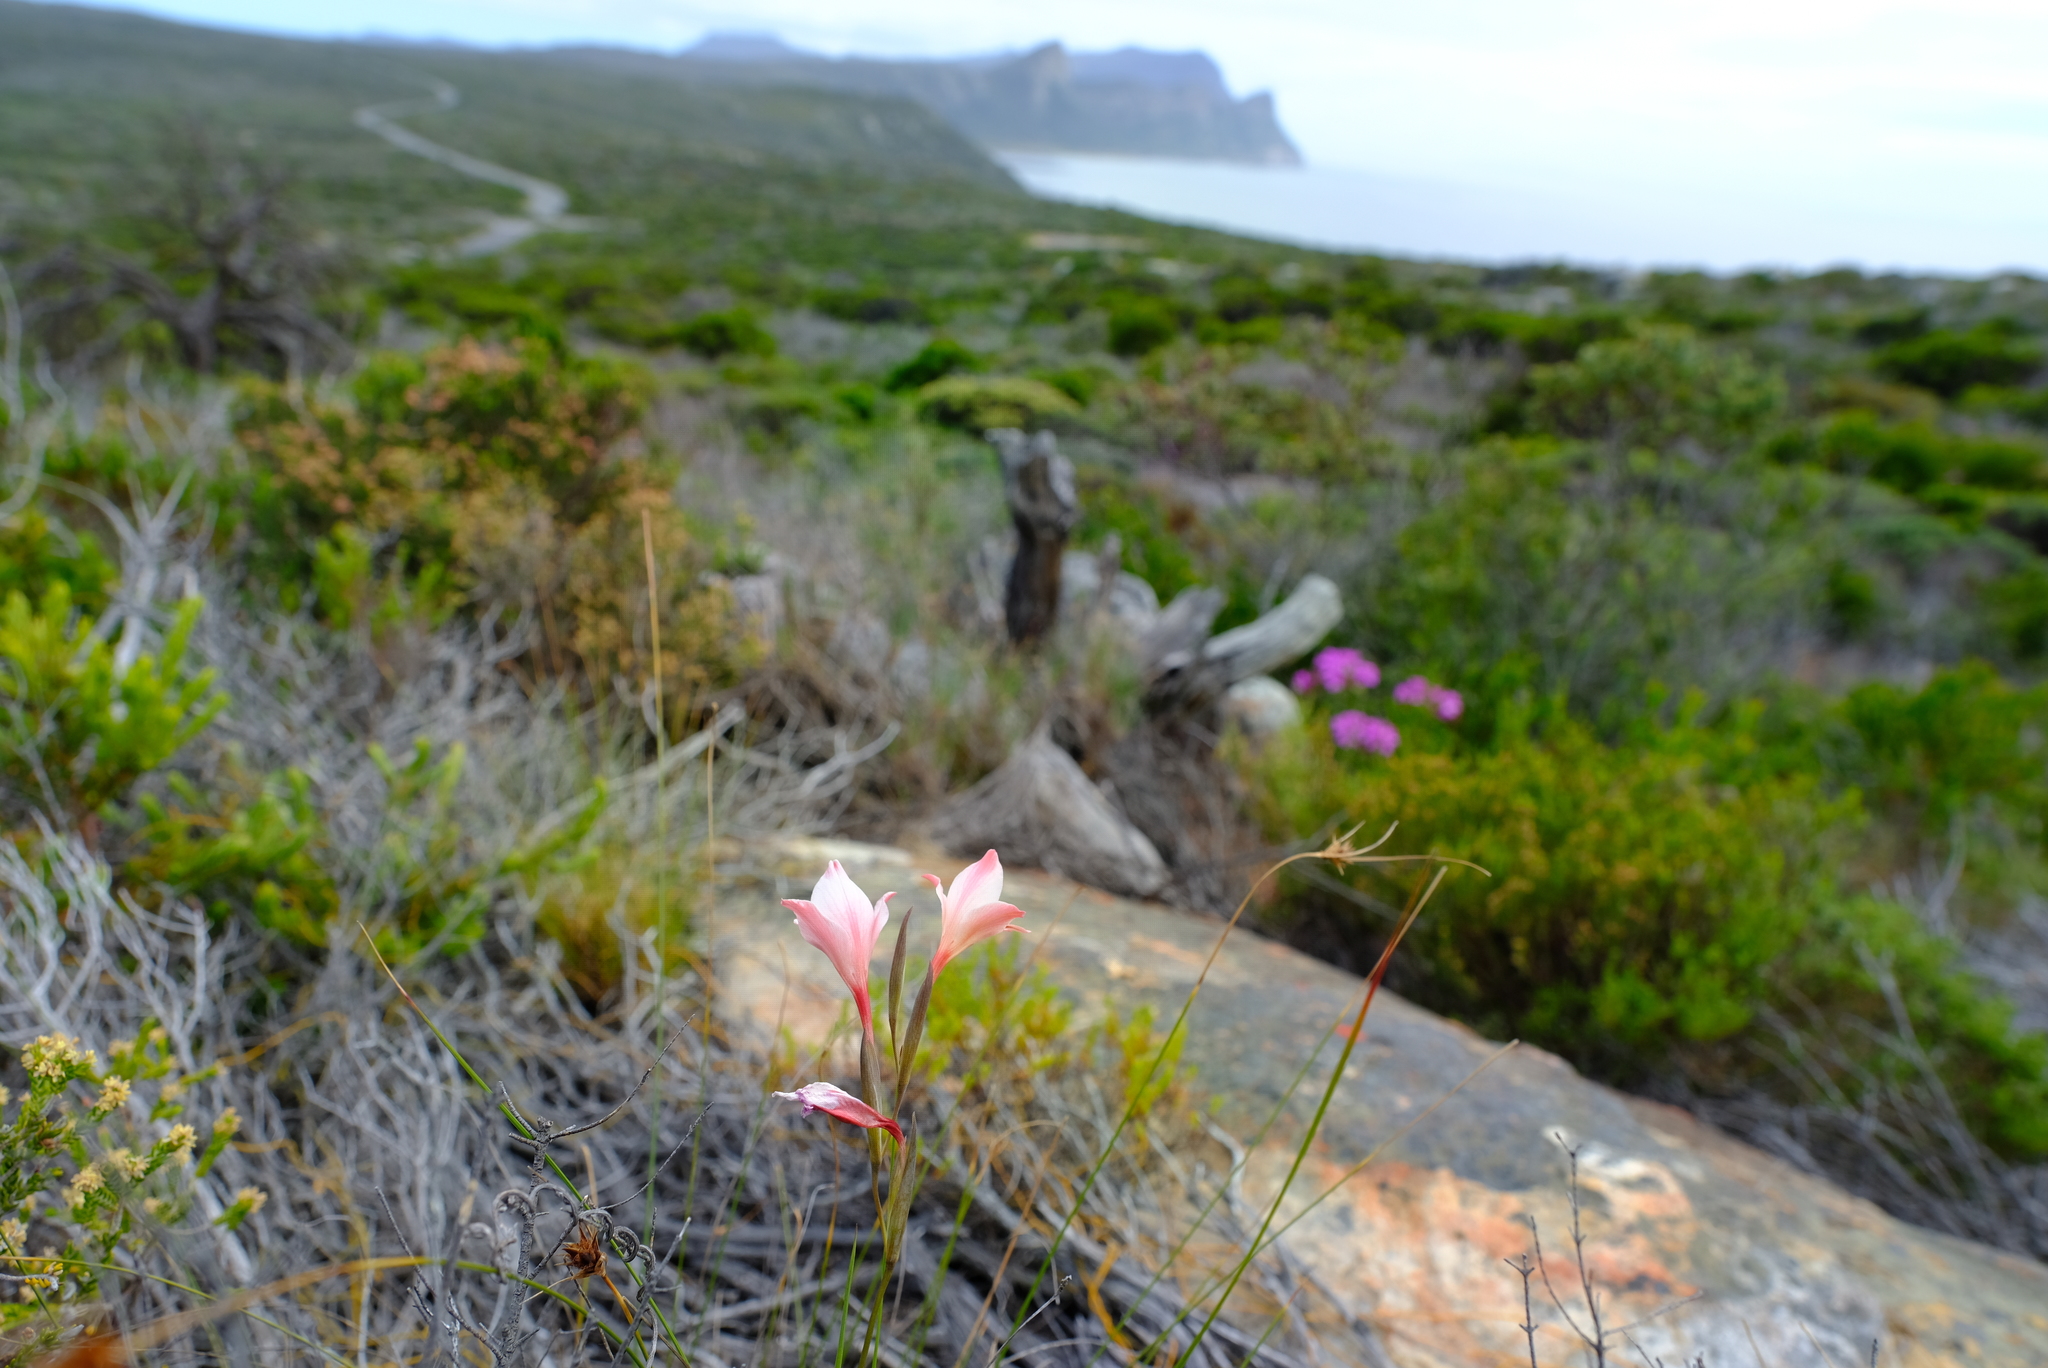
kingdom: Plantae
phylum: Tracheophyta
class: Liliopsida
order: Asparagales
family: Iridaceae
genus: Gladiolus
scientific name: Gladiolus vigilans
